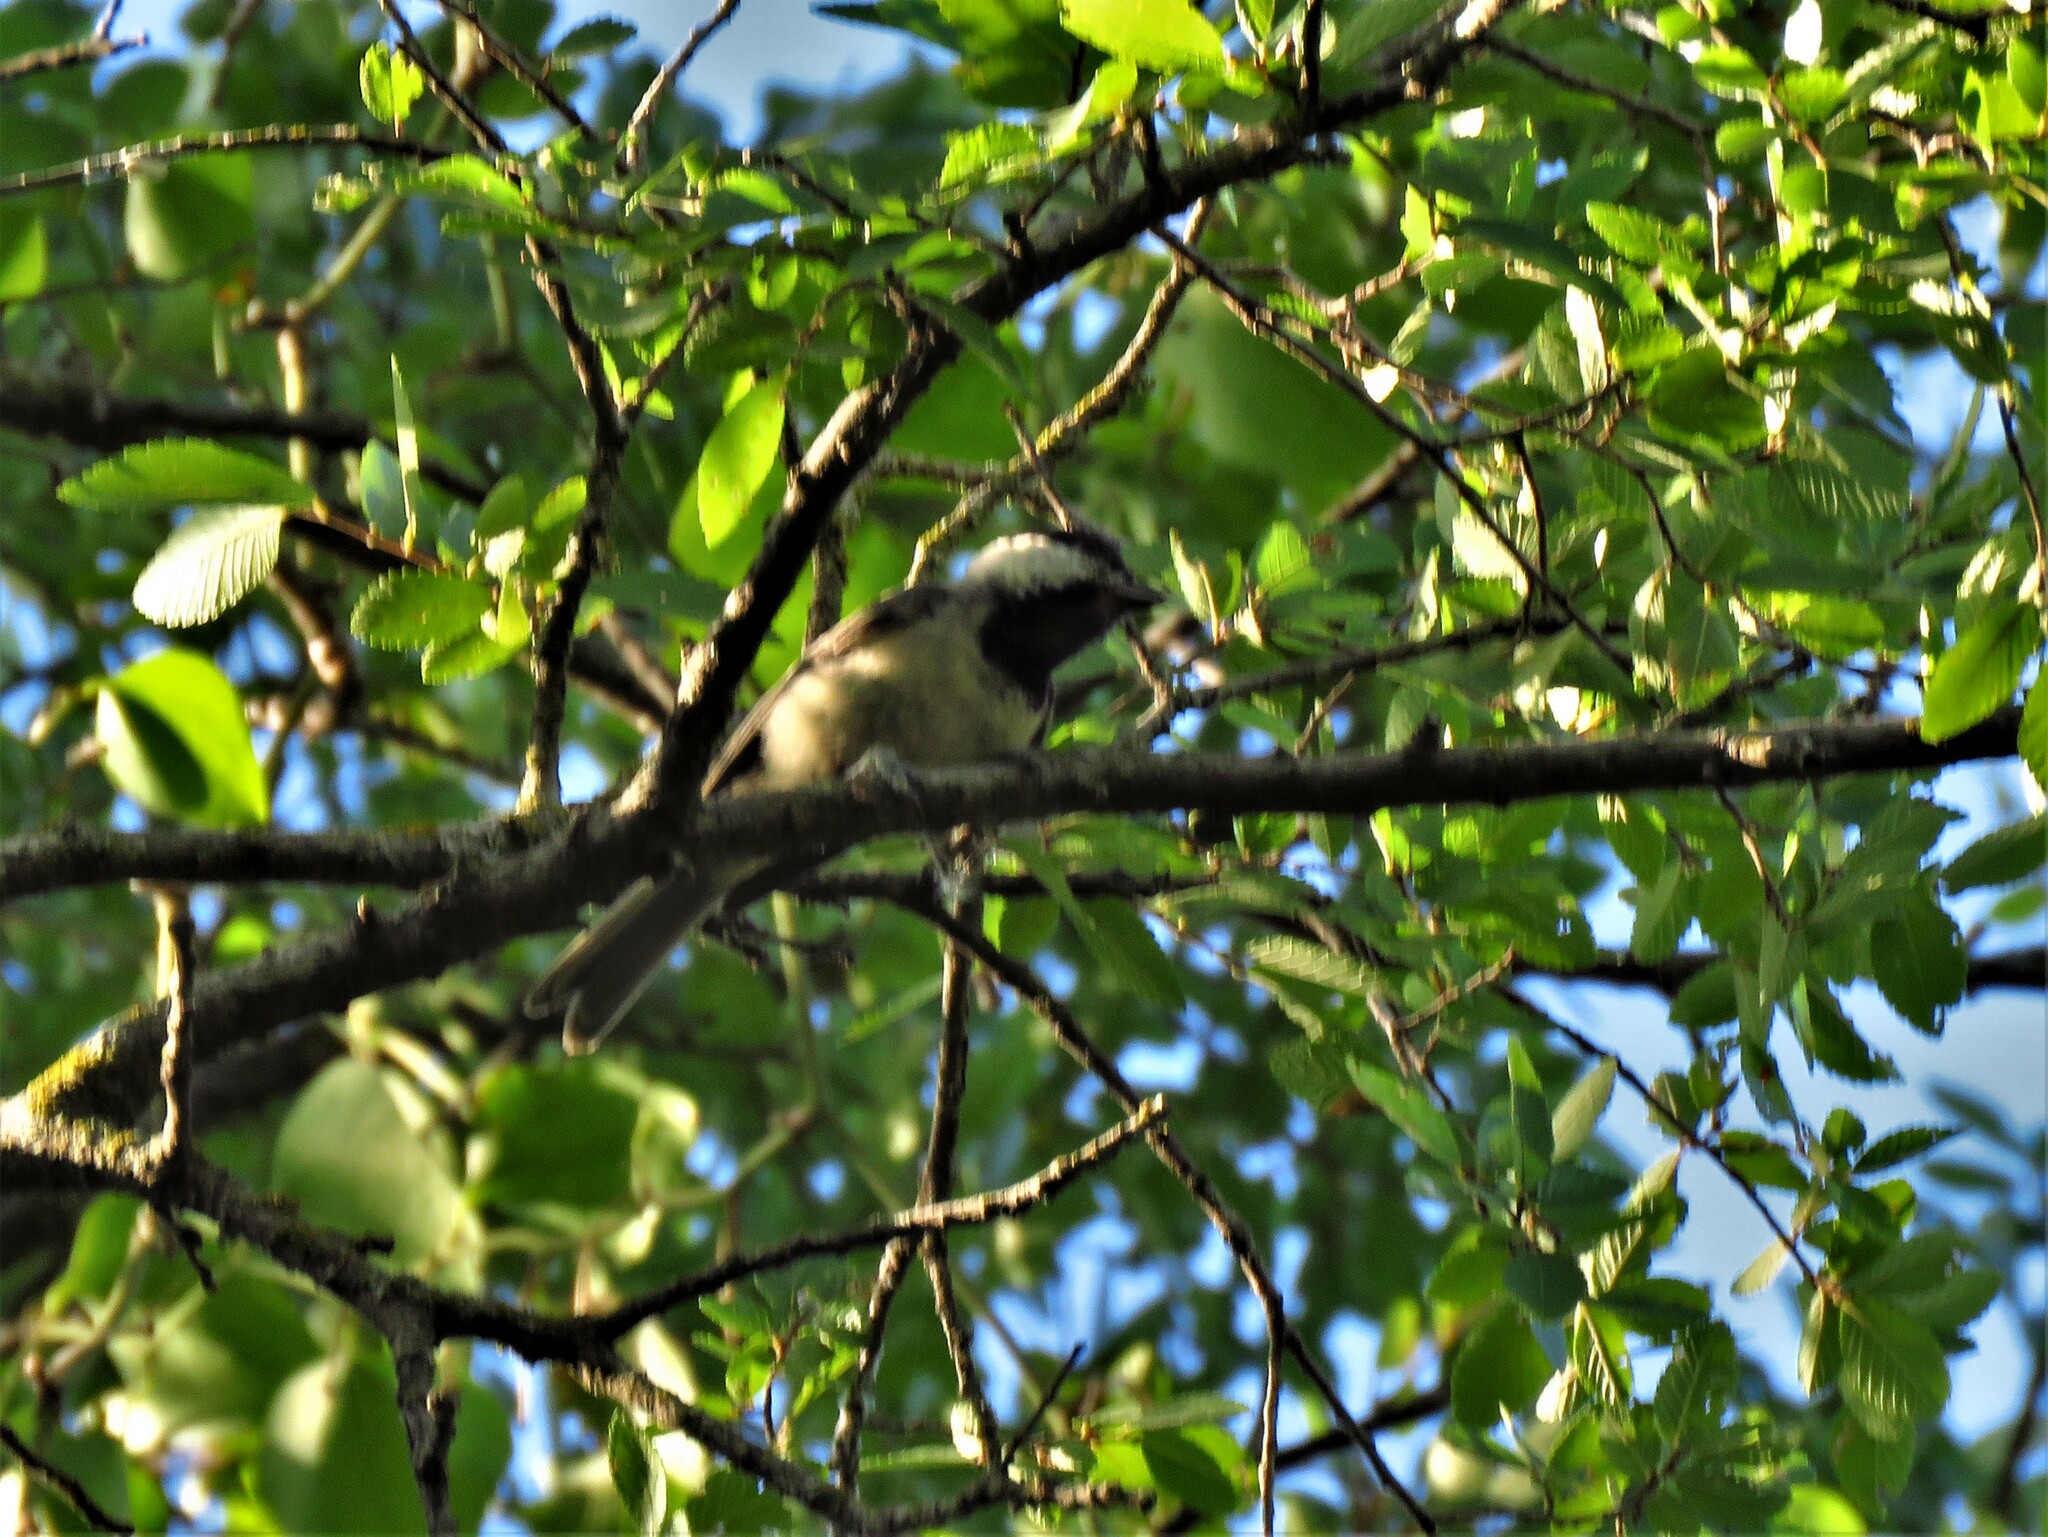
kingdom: Animalia
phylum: Chordata
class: Aves
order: Passeriformes
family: Paridae
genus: Poecile
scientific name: Poecile carolinensis
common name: Carolina chickadee
